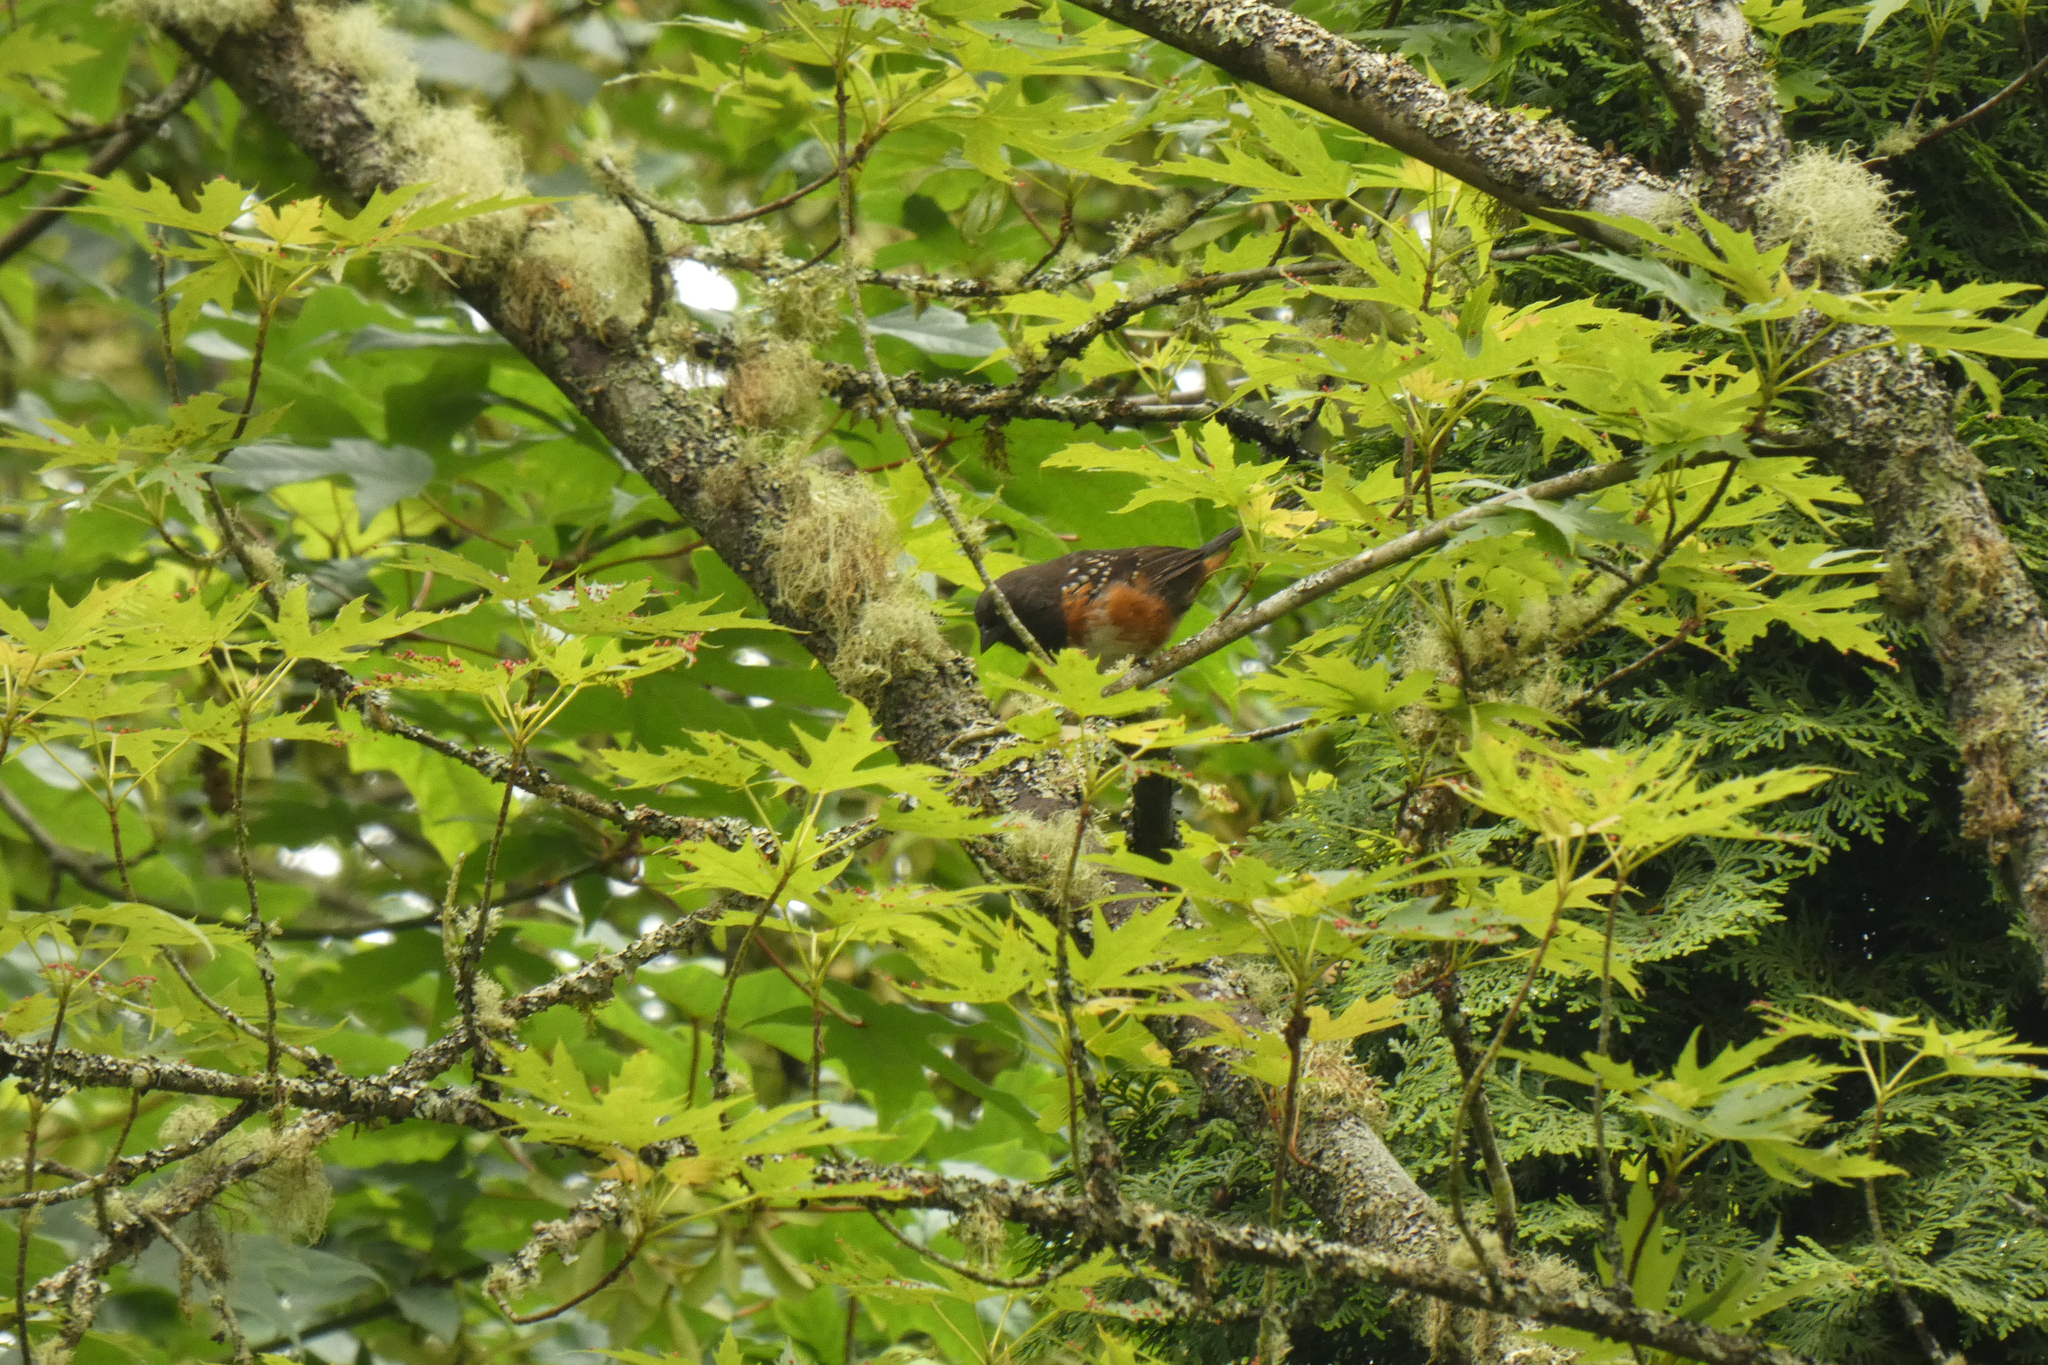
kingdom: Animalia
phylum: Chordata
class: Aves
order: Passeriformes
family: Passerellidae
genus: Pipilo
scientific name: Pipilo maculatus
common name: Spotted towhee
